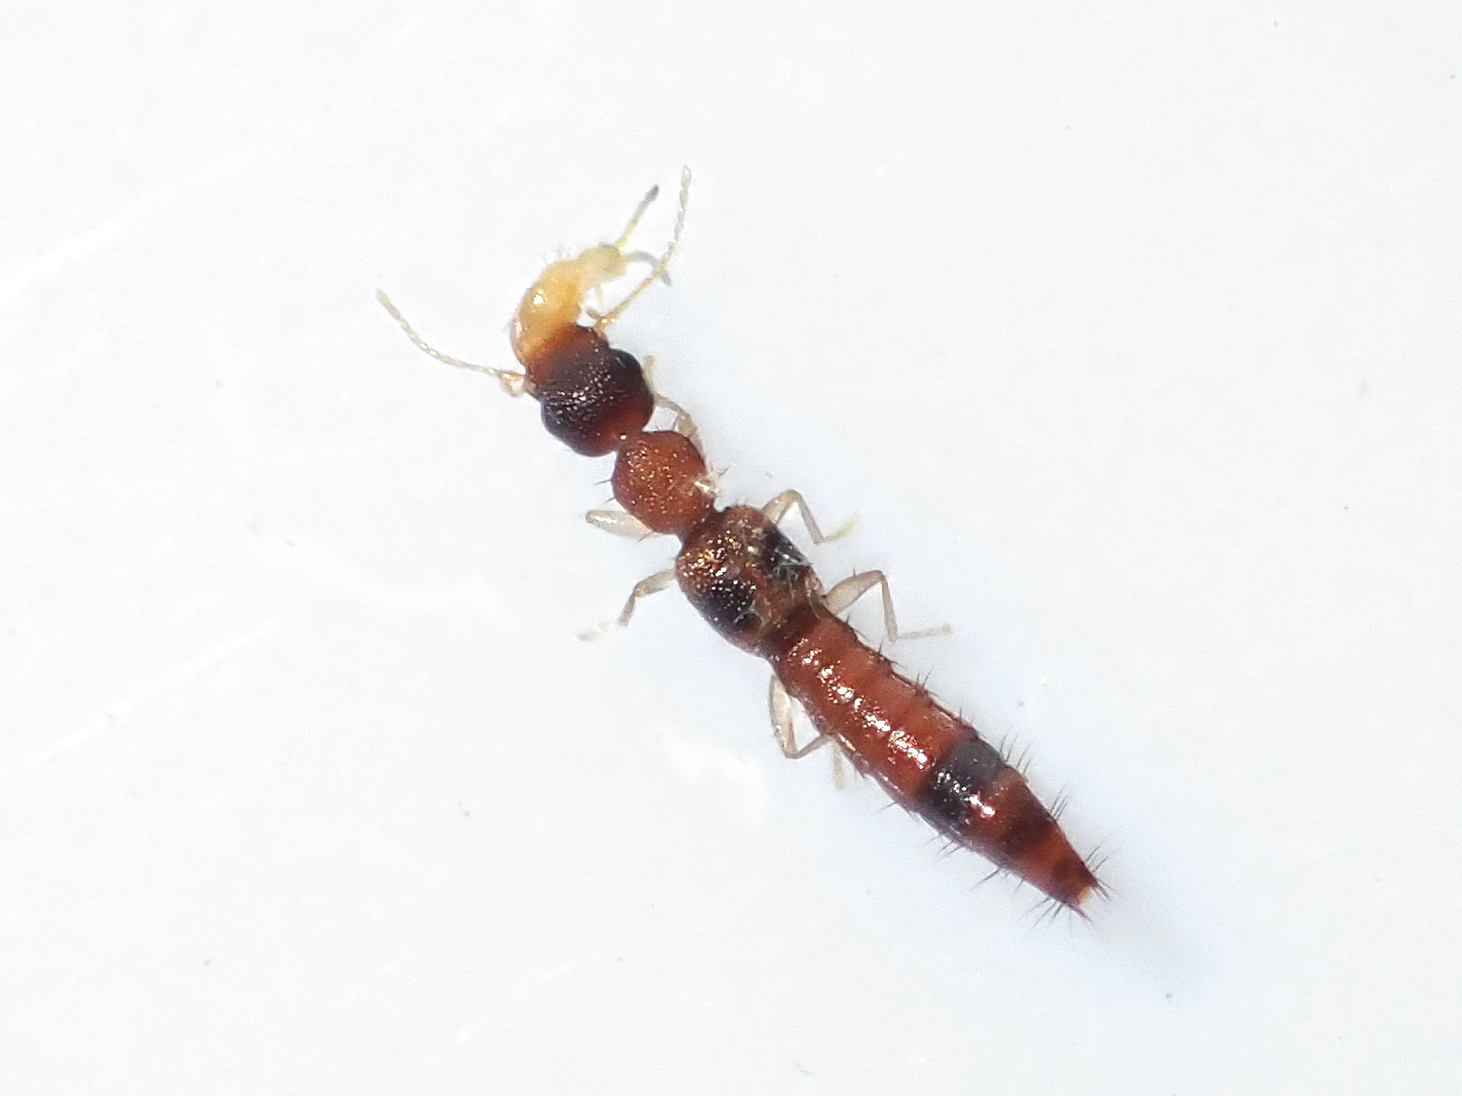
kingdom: Animalia
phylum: Arthropoda
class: Insecta
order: Coleoptera
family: Staphylinidae
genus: Astenus
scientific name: Astenus guttulus
